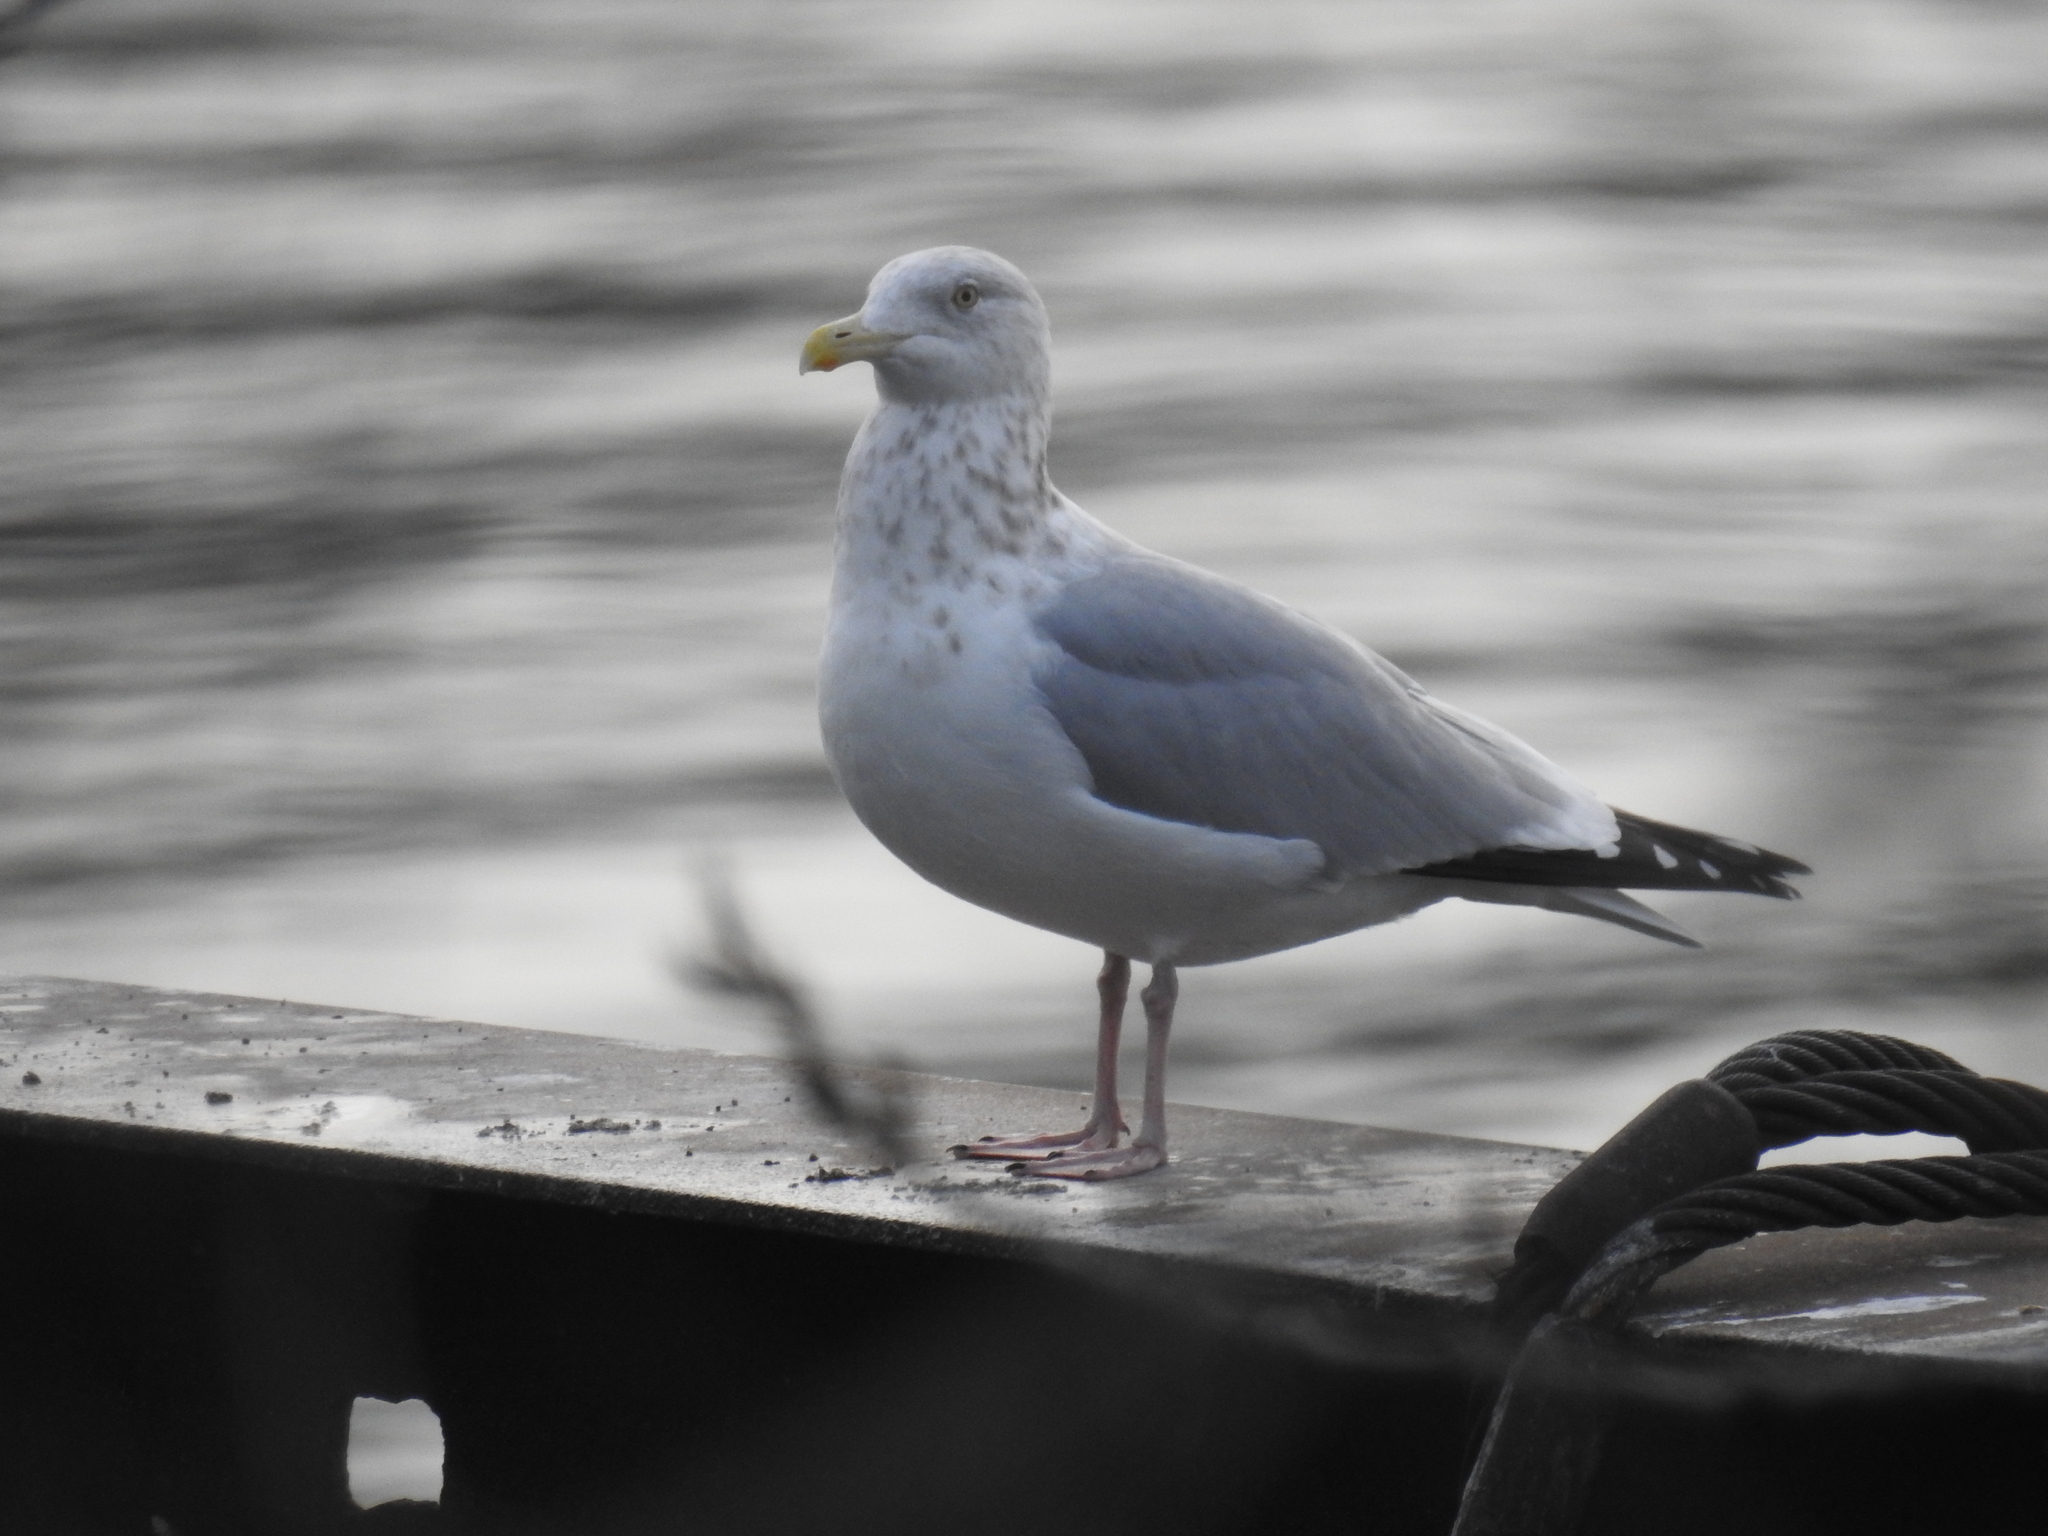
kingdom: Animalia
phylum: Chordata
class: Aves
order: Charadriiformes
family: Laridae
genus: Larus
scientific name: Larus argentatus
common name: Herring gull
